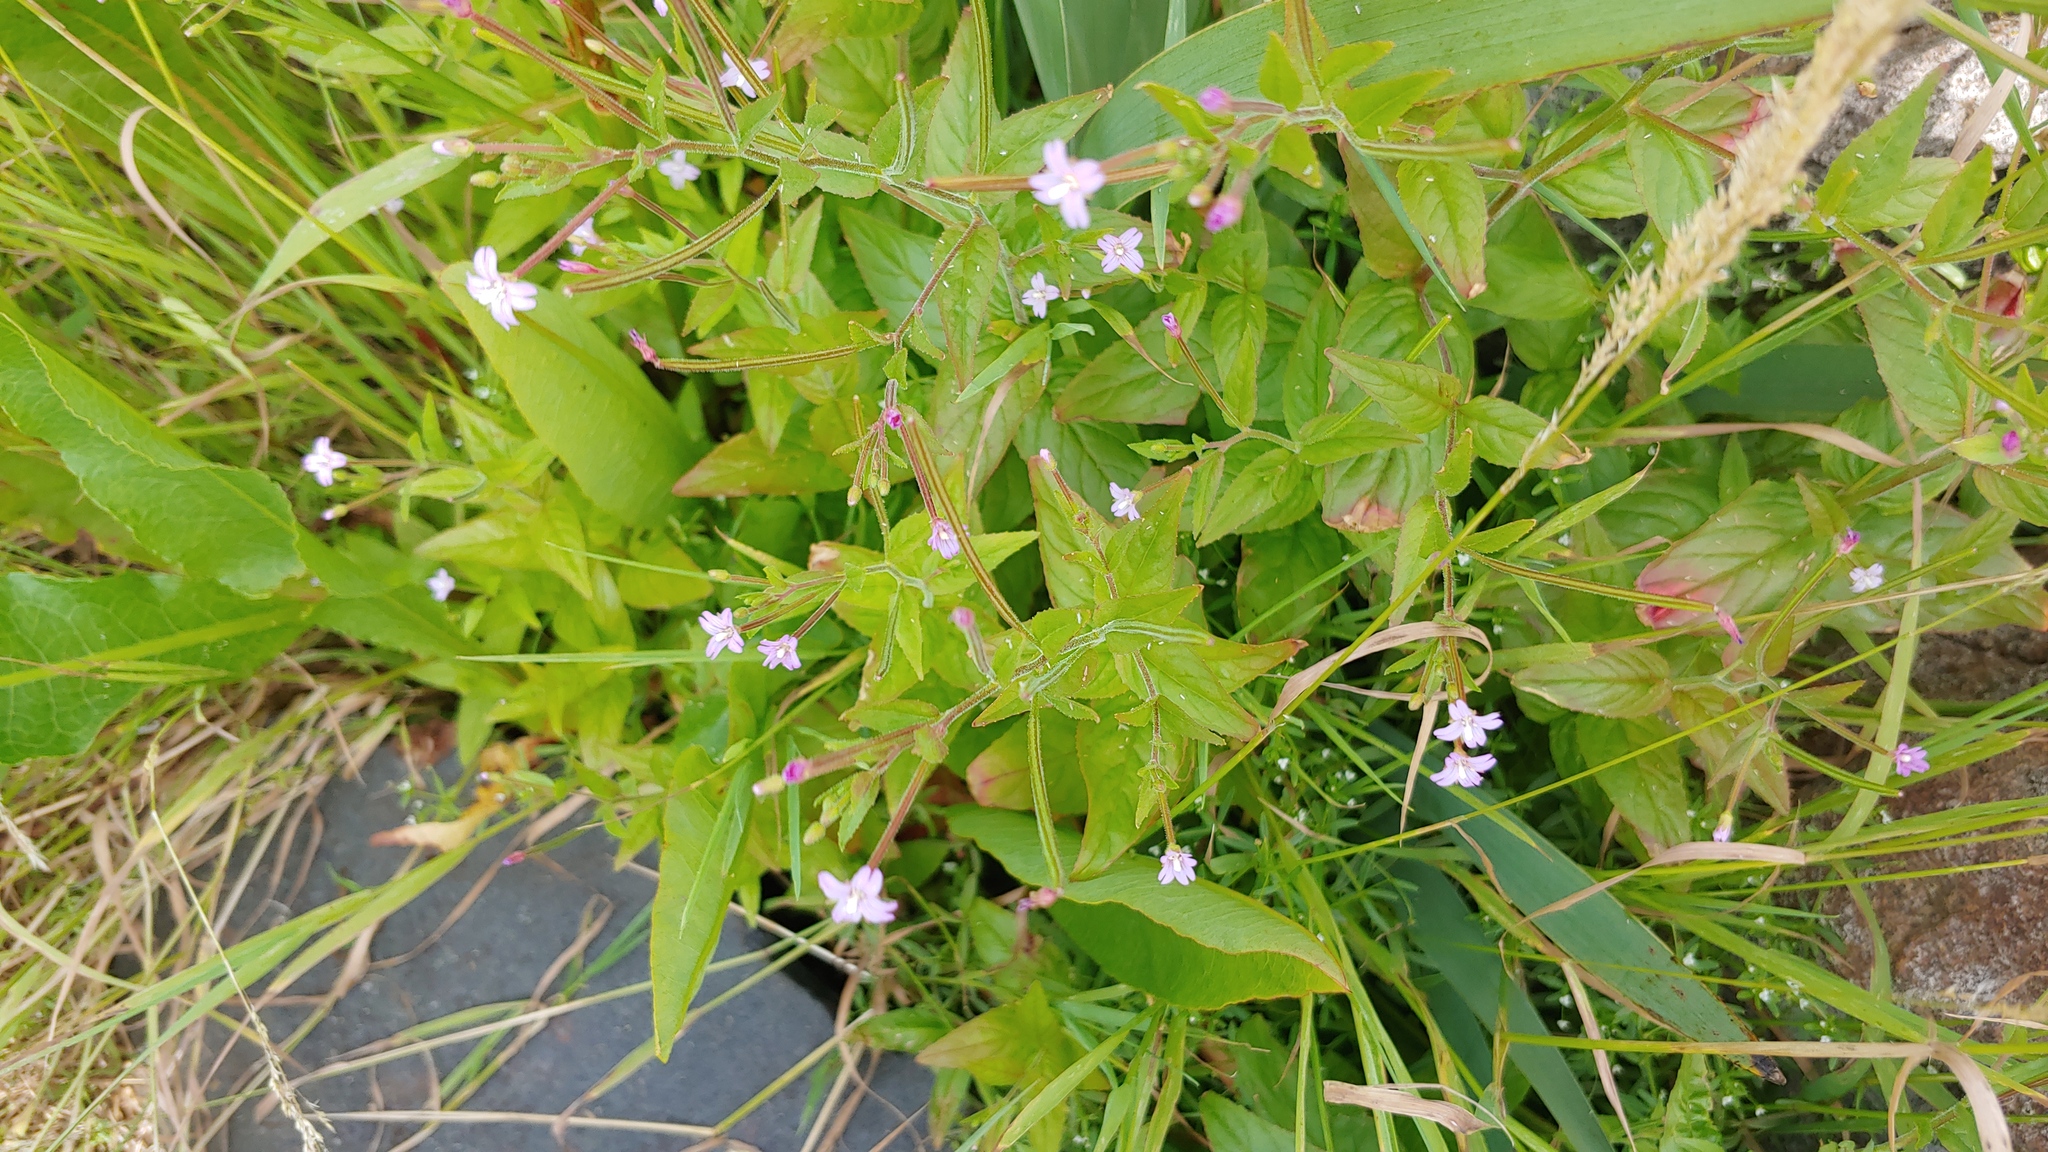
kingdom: Plantae
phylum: Tracheophyta
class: Magnoliopsida
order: Myrtales
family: Onagraceae
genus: Epilobium
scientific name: Epilobium ciliatum
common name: American willowherb
